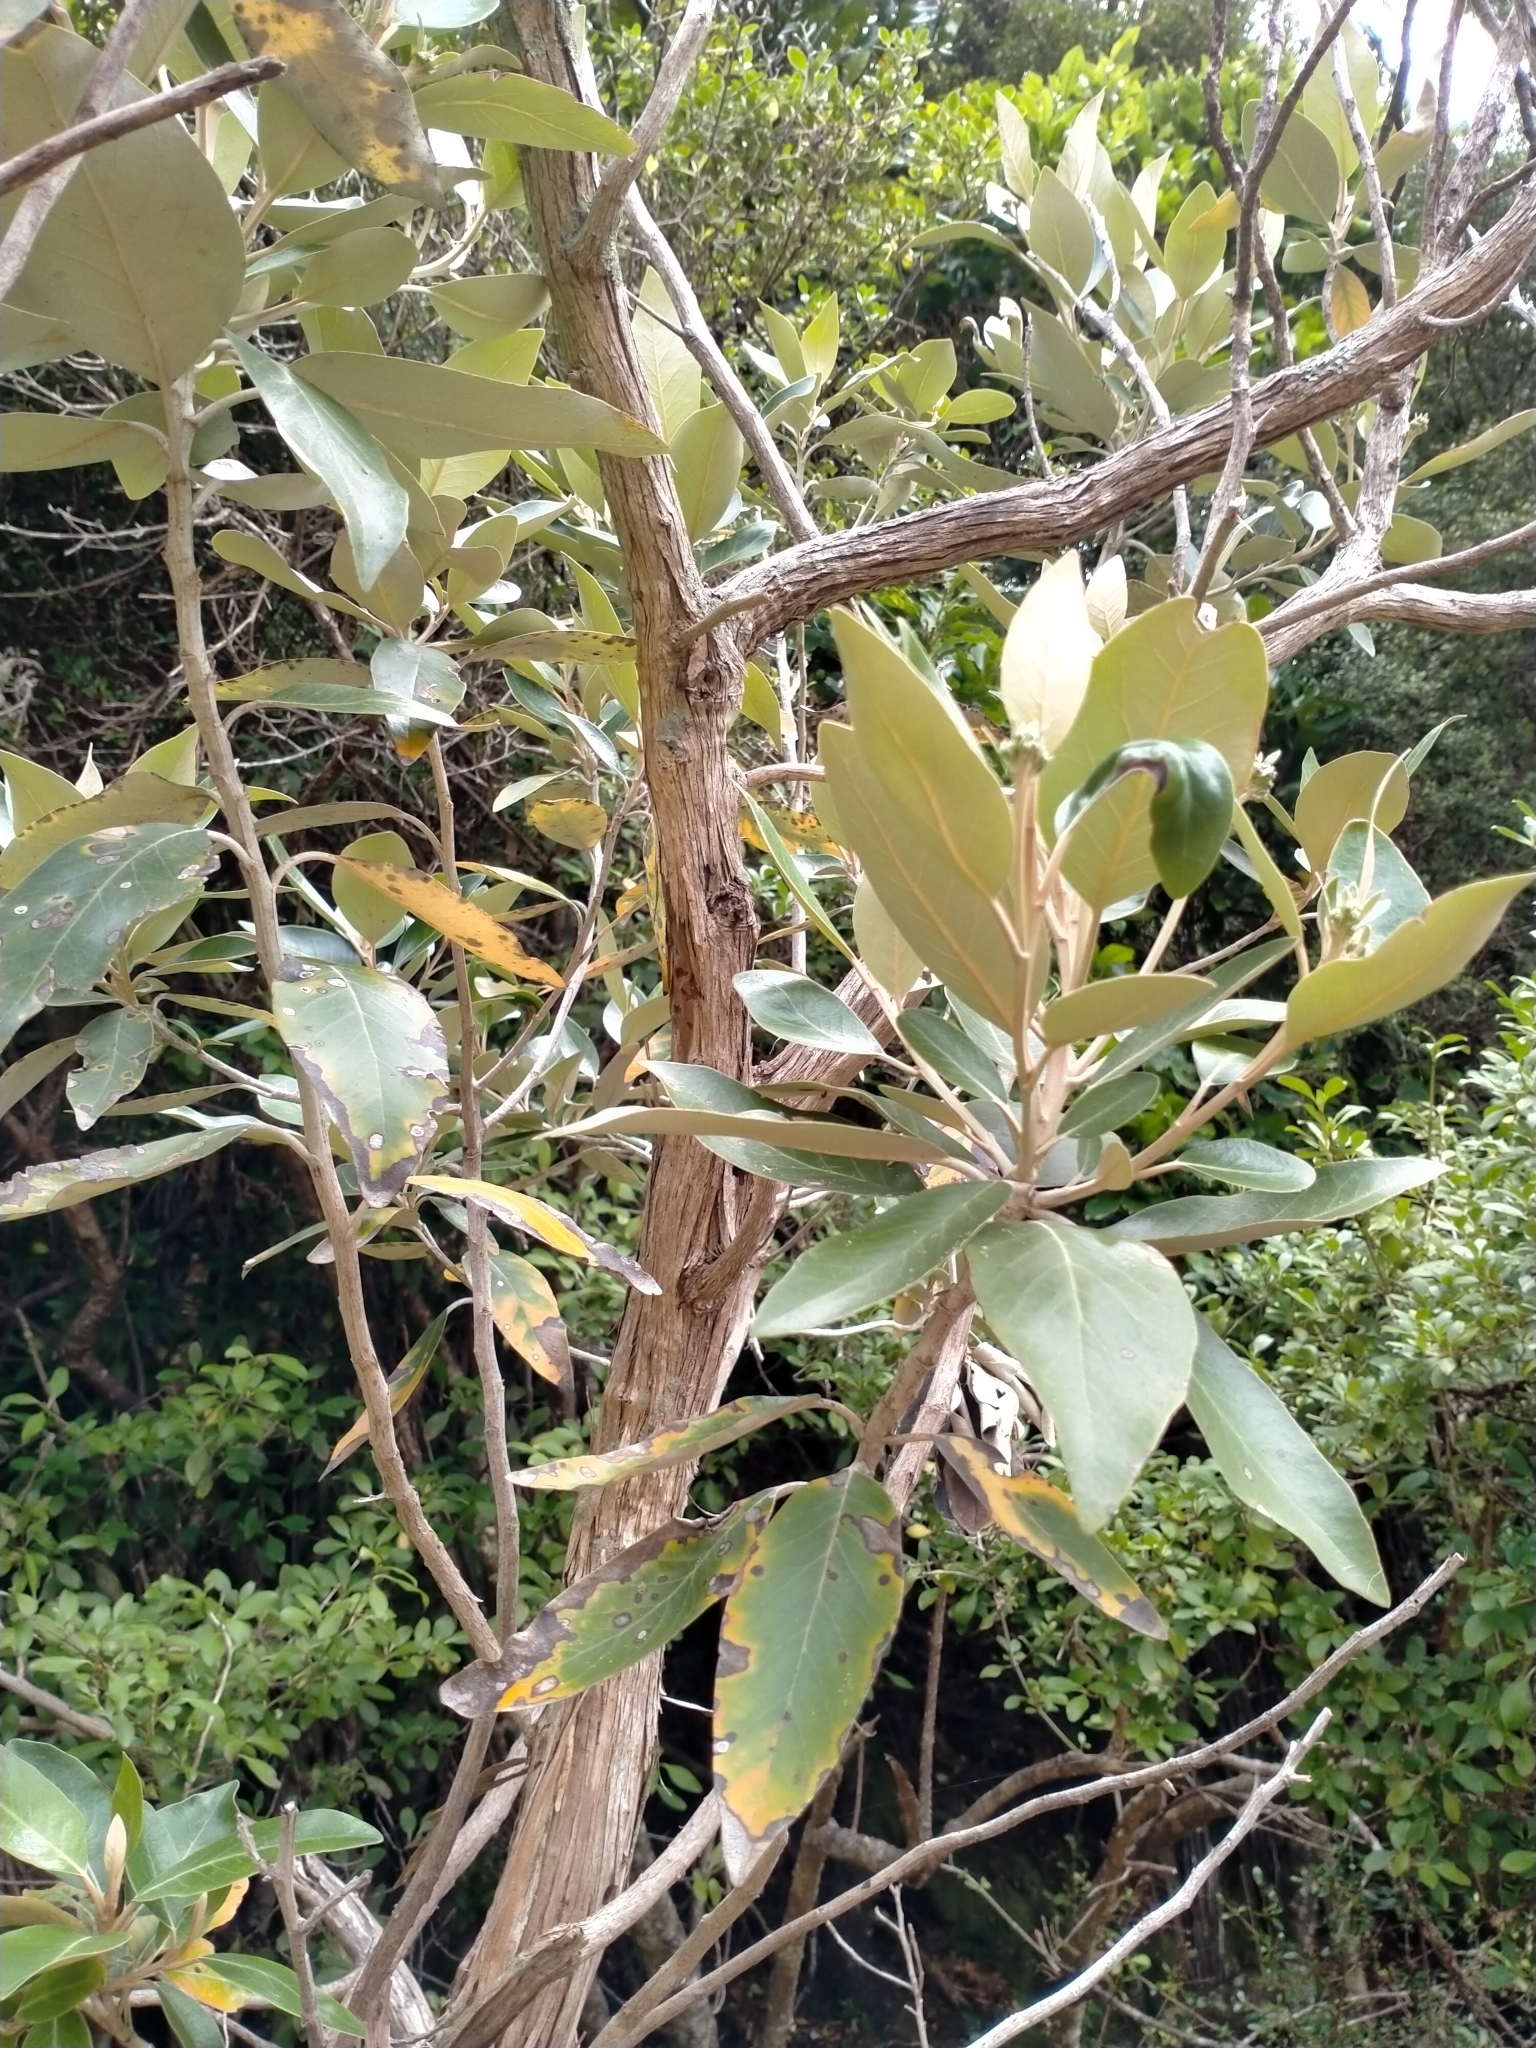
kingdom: Plantae
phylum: Tracheophyta
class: Magnoliopsida
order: Asterales
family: Asteraceae
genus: Olearia
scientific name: Olearia avicenniifolia
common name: Mangrove-leaf daisybush
